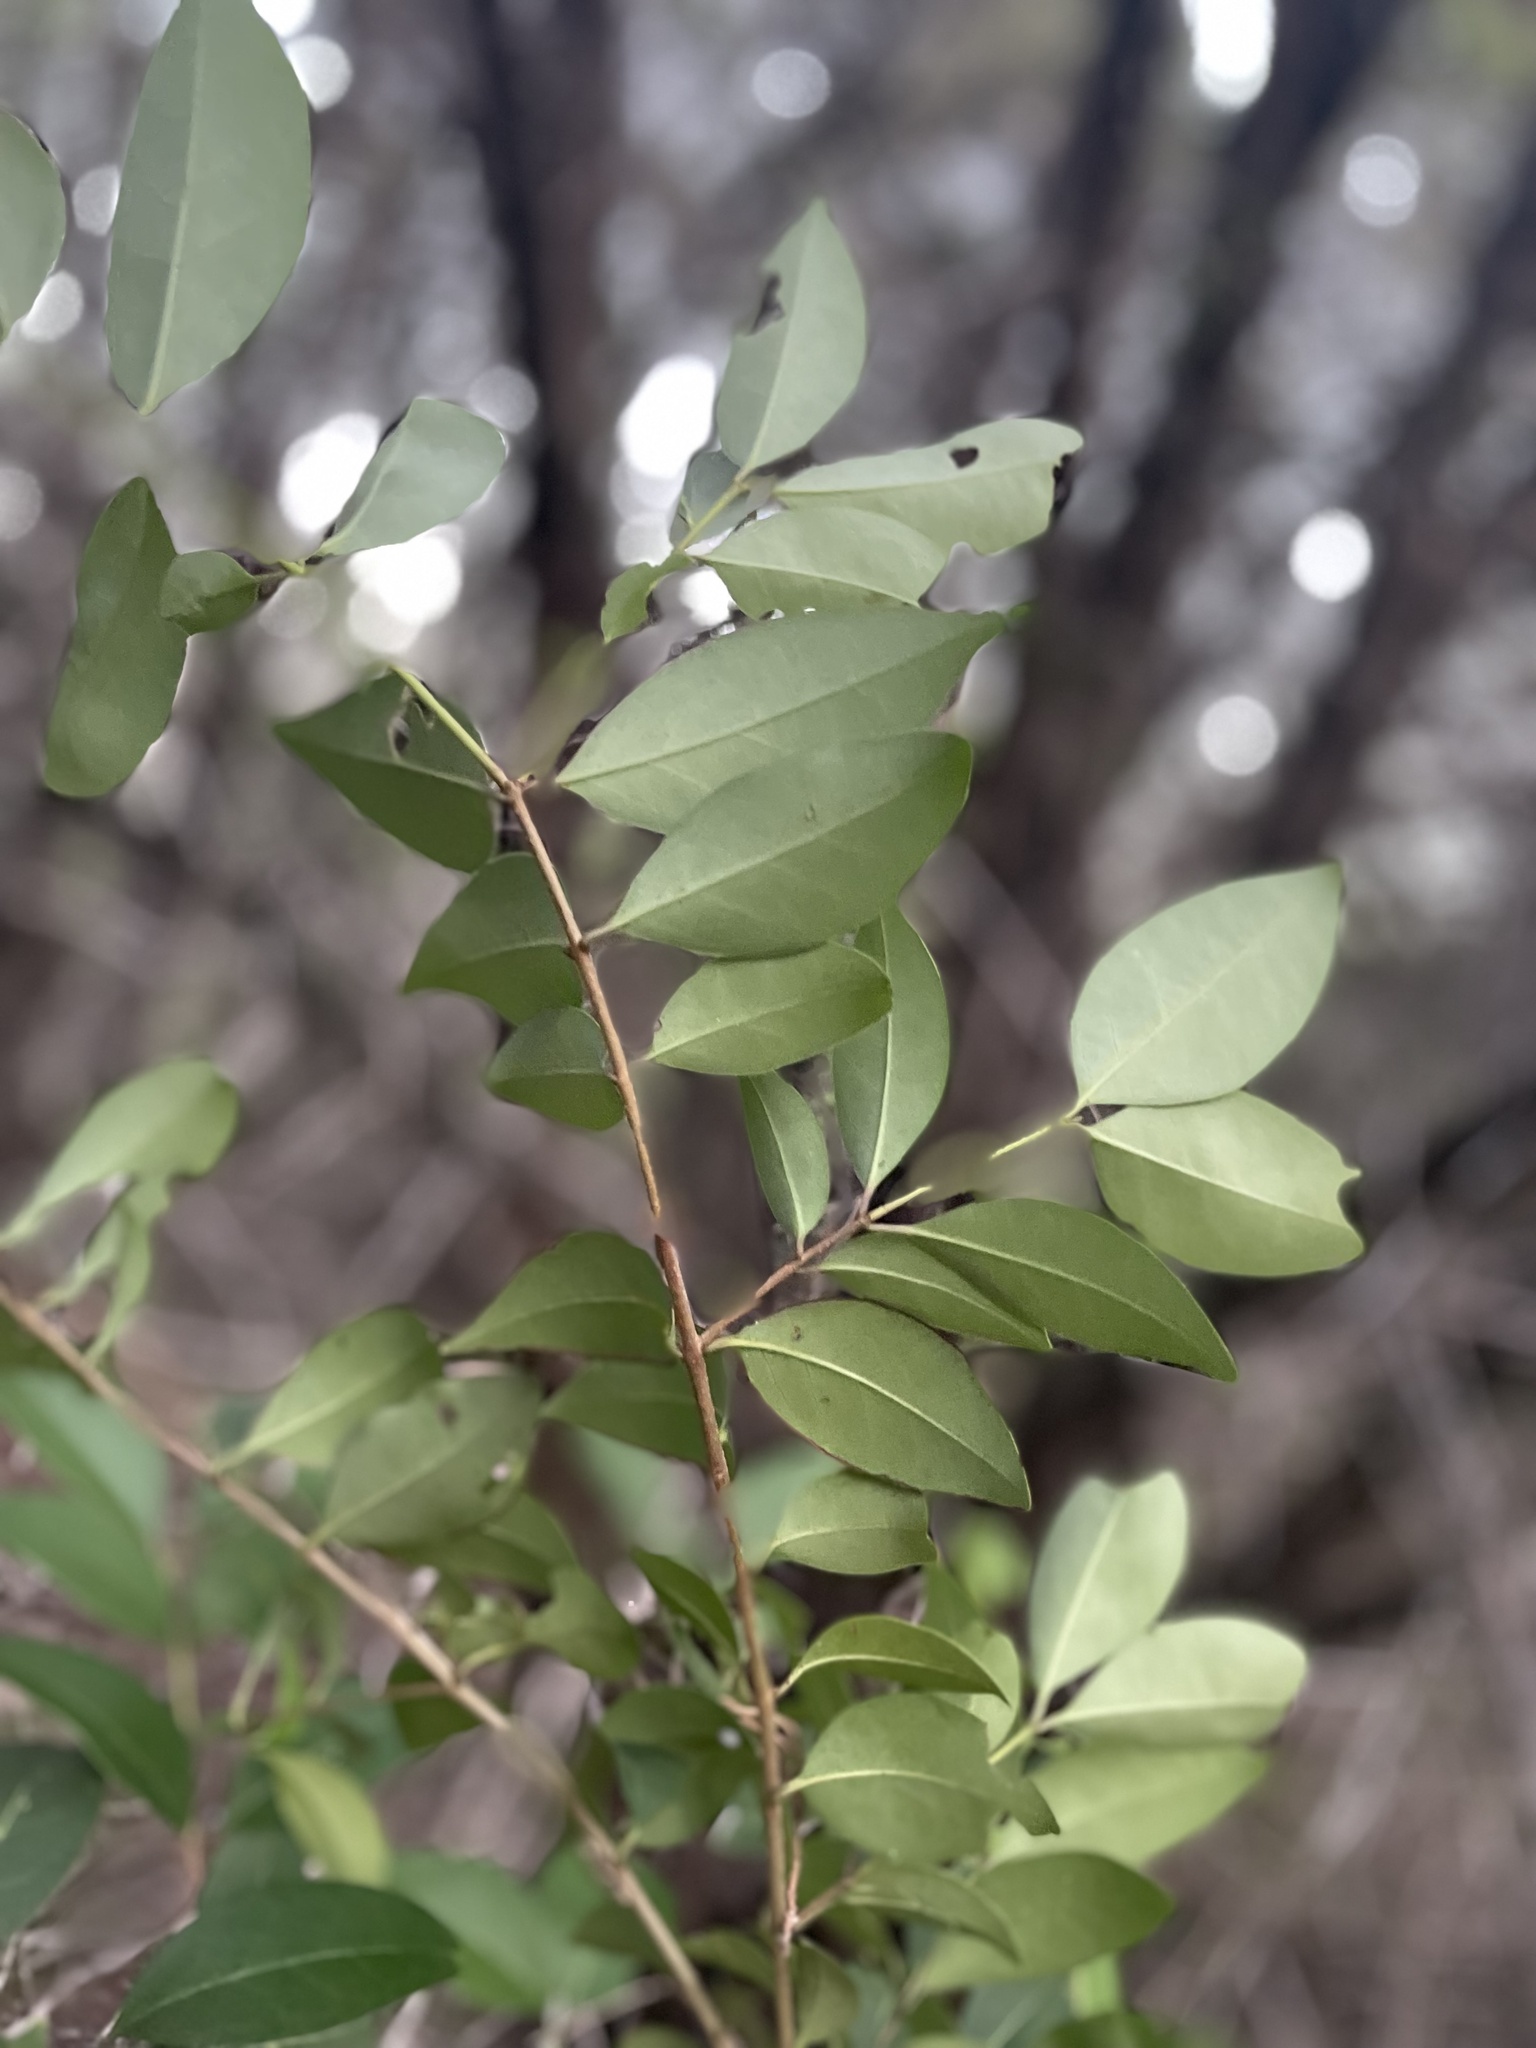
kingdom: Plantae
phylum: Tracheophyta
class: Magnoliopsida
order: Lamiales
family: Oleaceae
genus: Ligustrum
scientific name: Ligustrum lucidum
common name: Glossy privet
